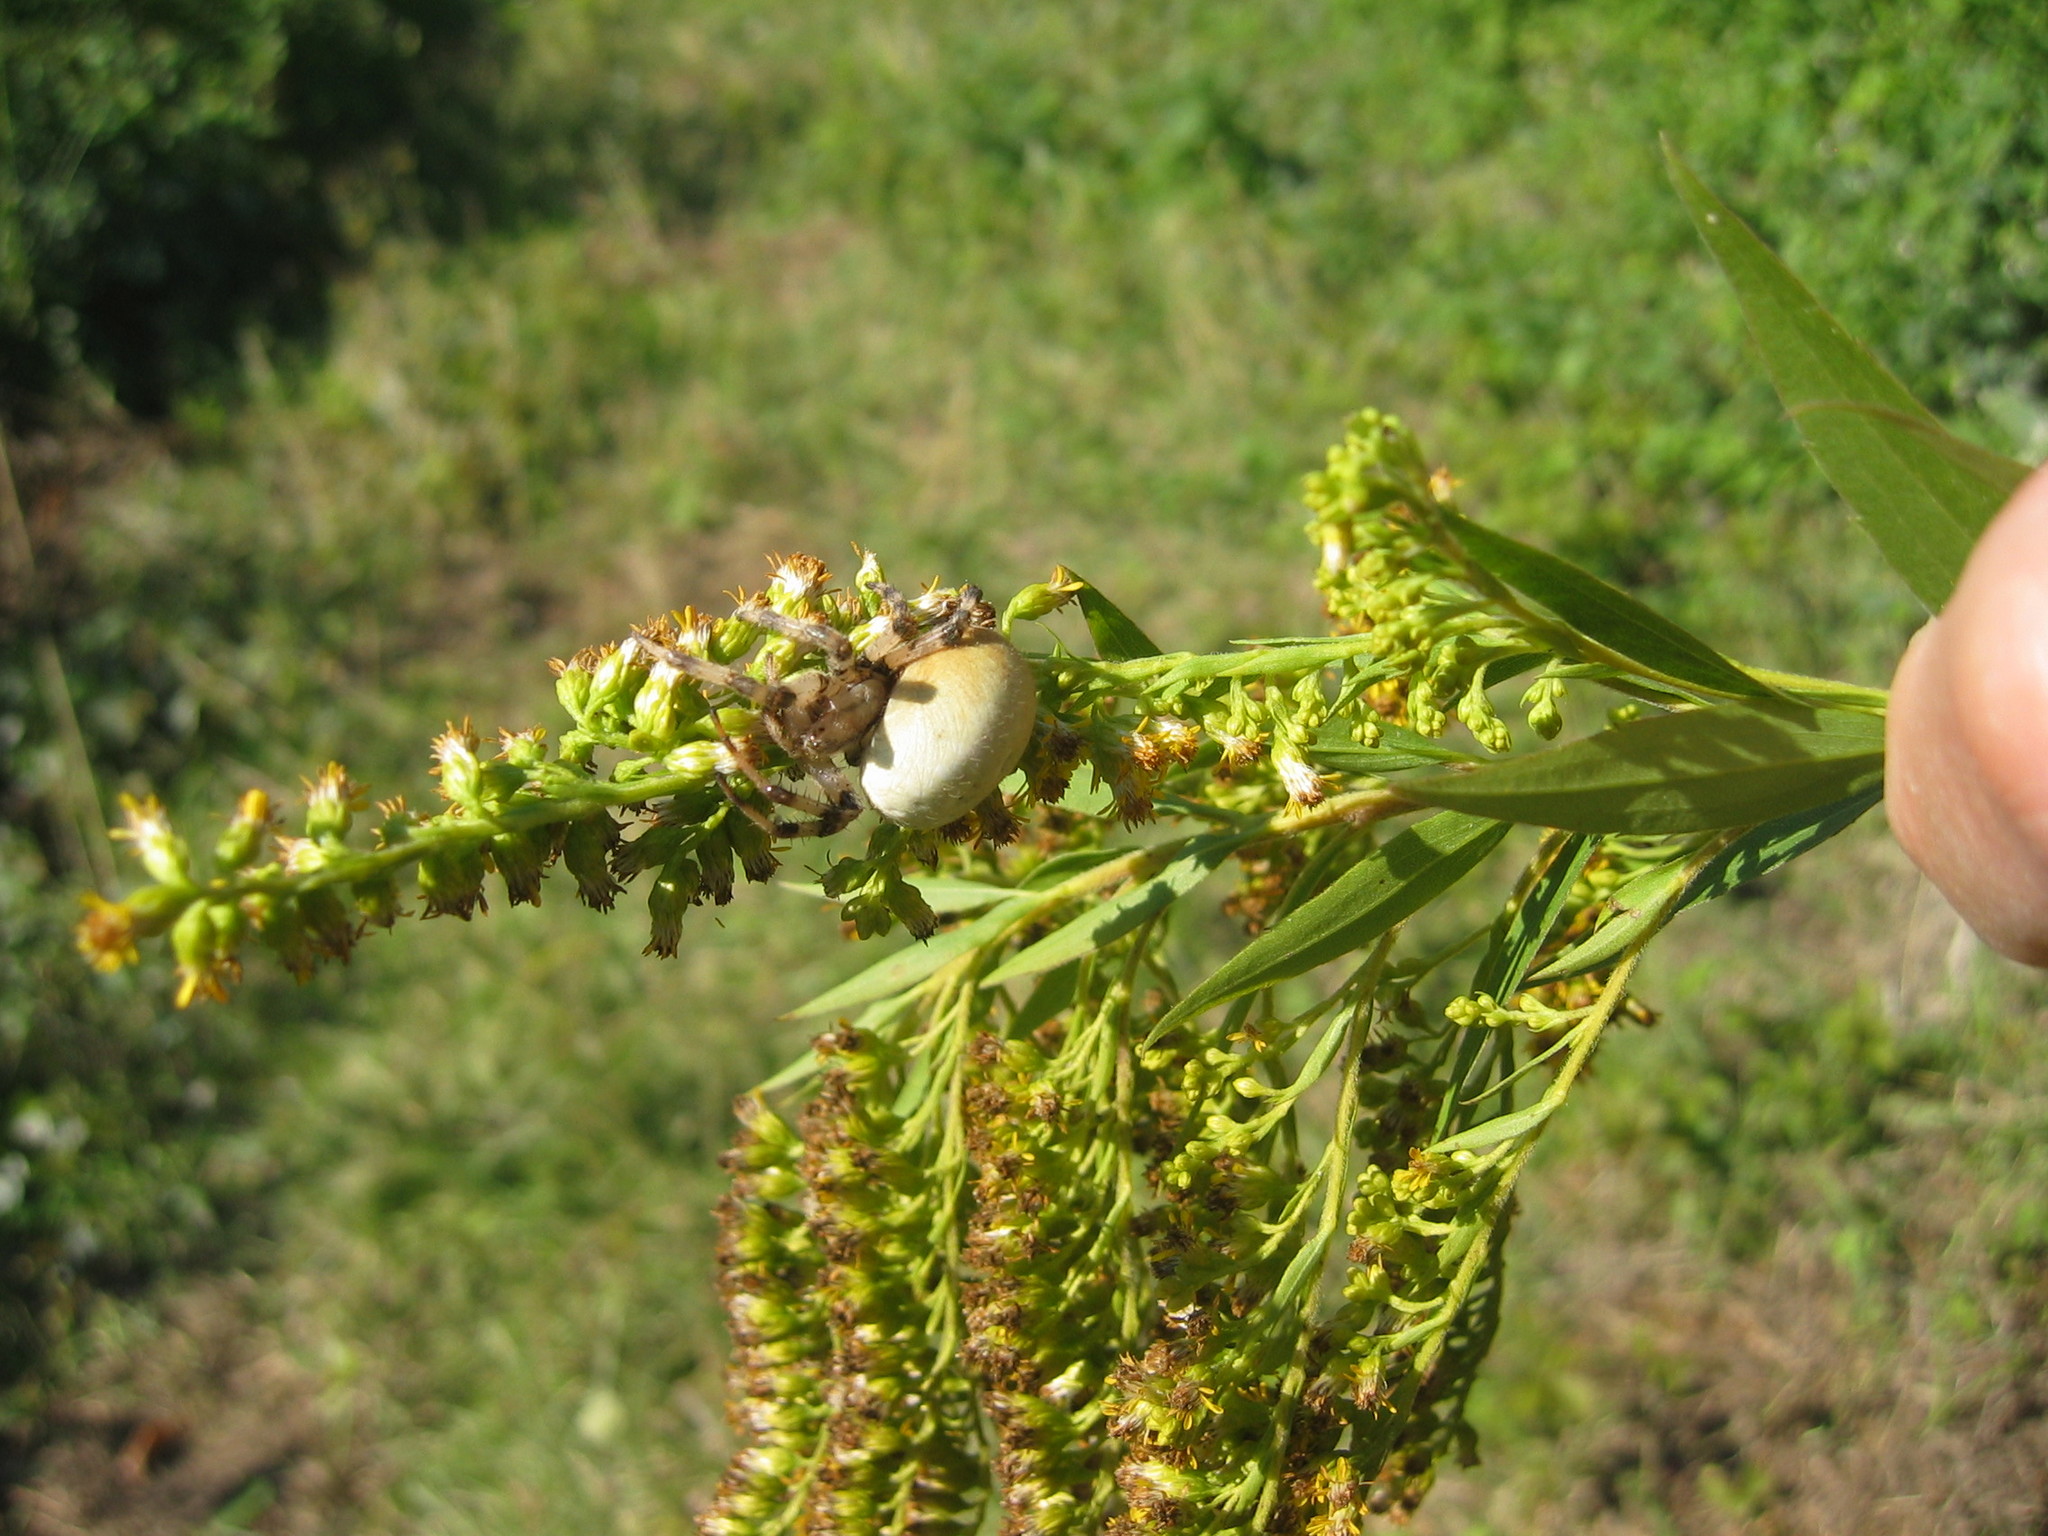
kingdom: Animalia
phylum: Arthropoda
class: Arachnida
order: Araneae
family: Araneidae
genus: Araneus
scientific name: Araneus quadratus
